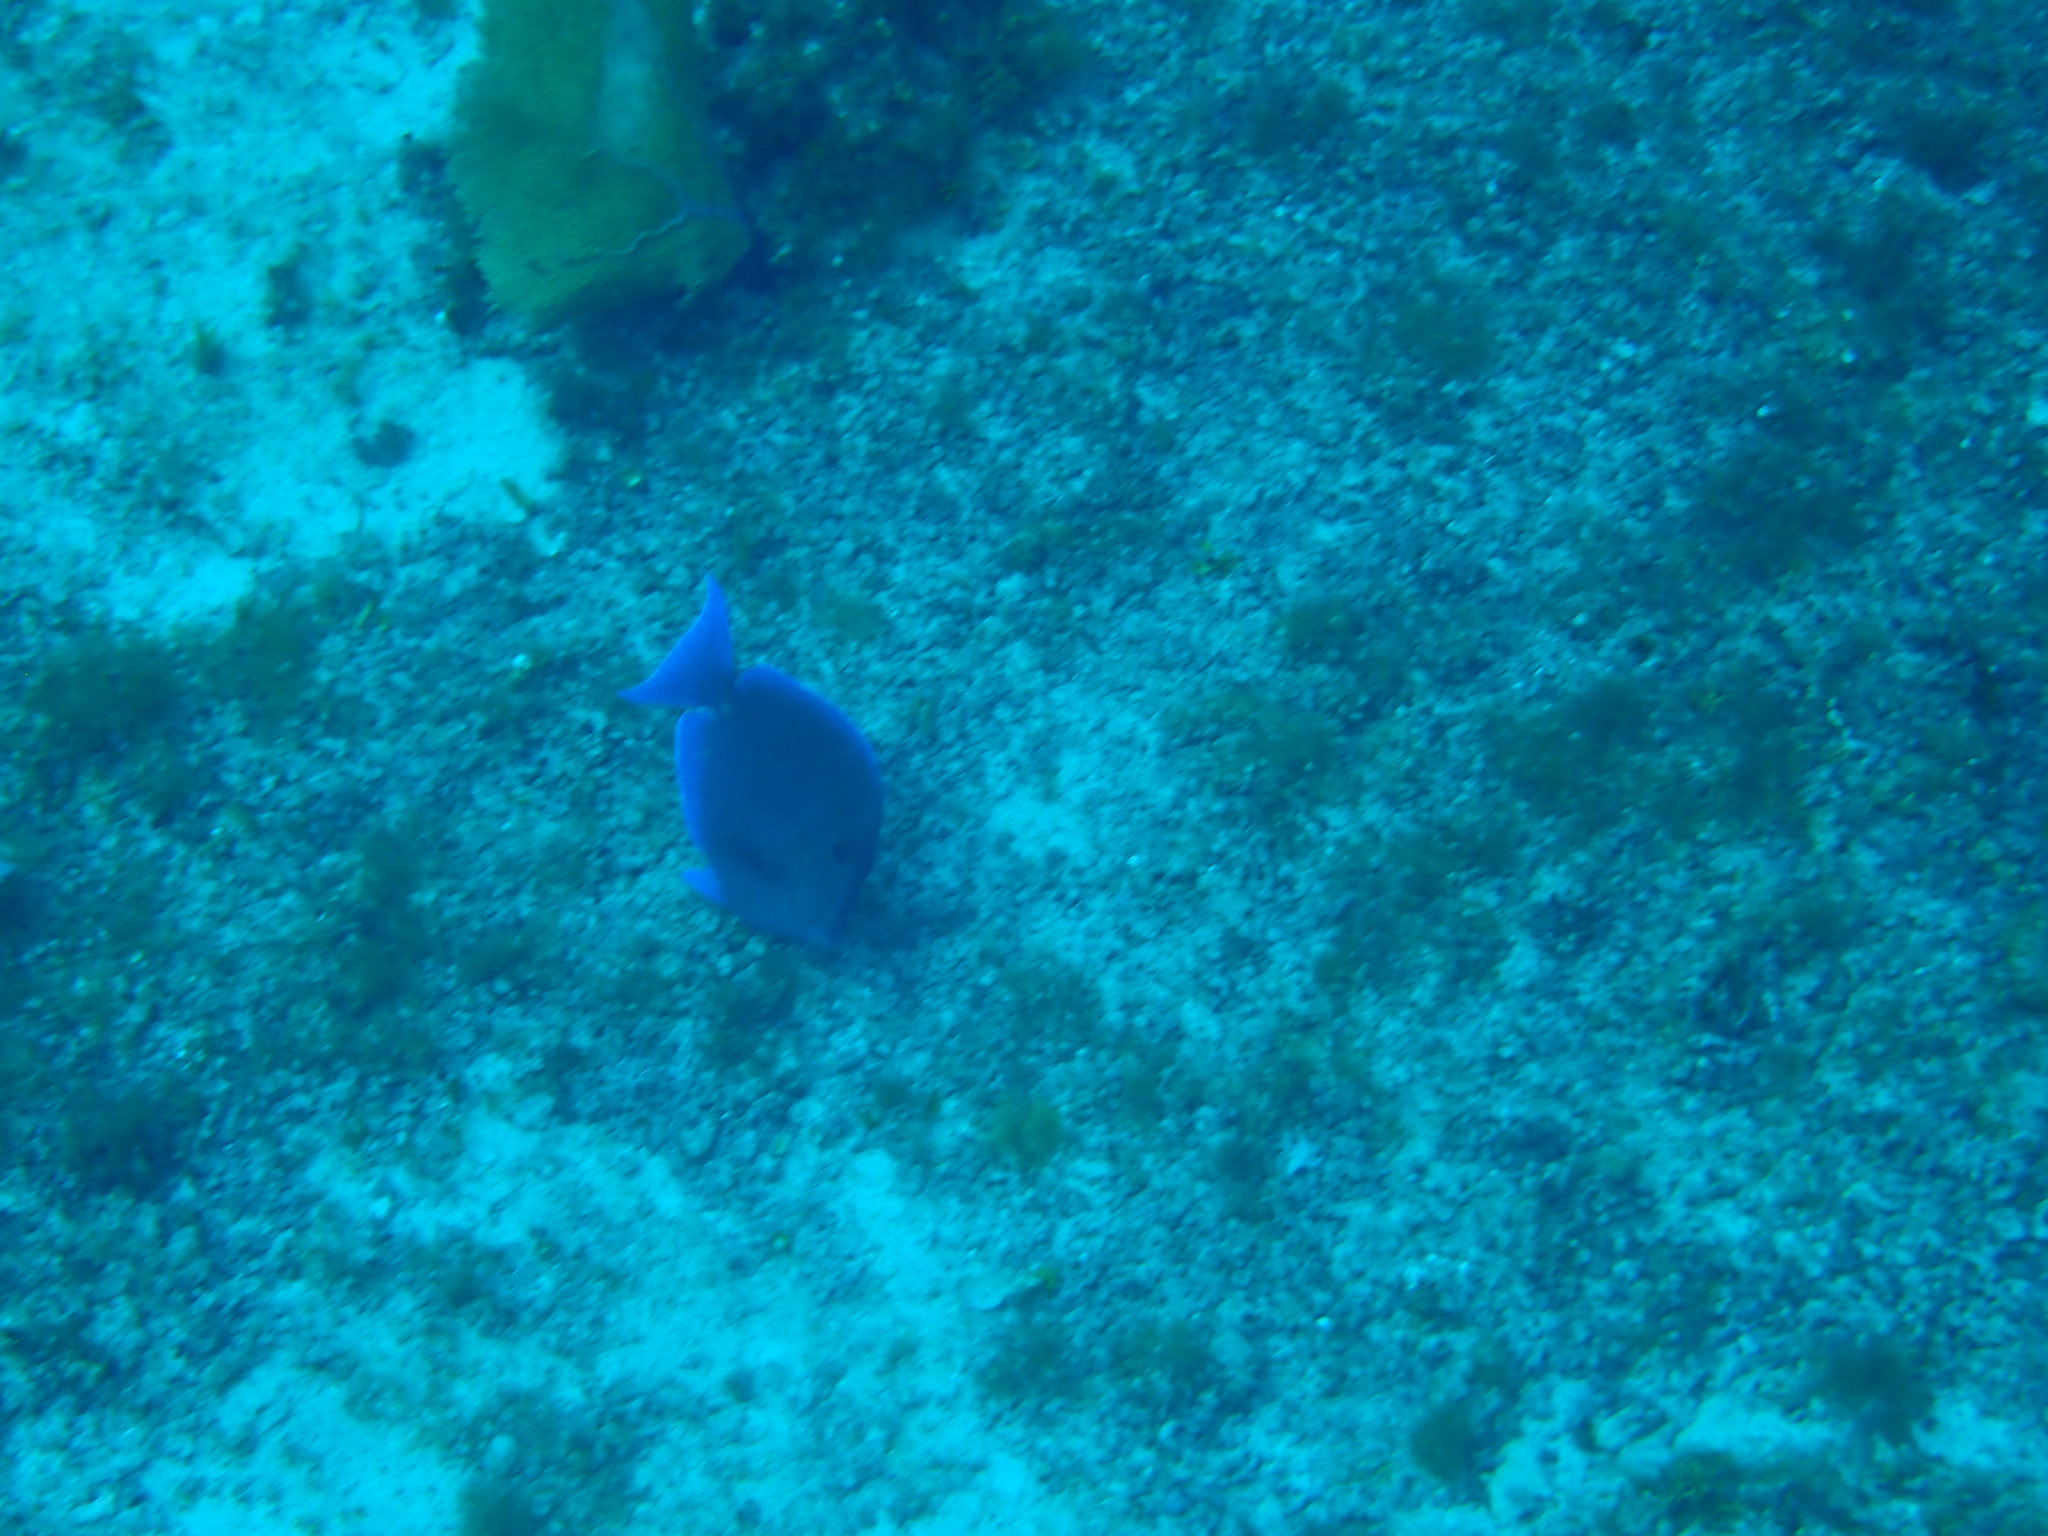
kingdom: Animalia
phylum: Chordata
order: Perciformes
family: Acanthuridae
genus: Acanthurus
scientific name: Acanthurus coeruleus
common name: Blue tang
